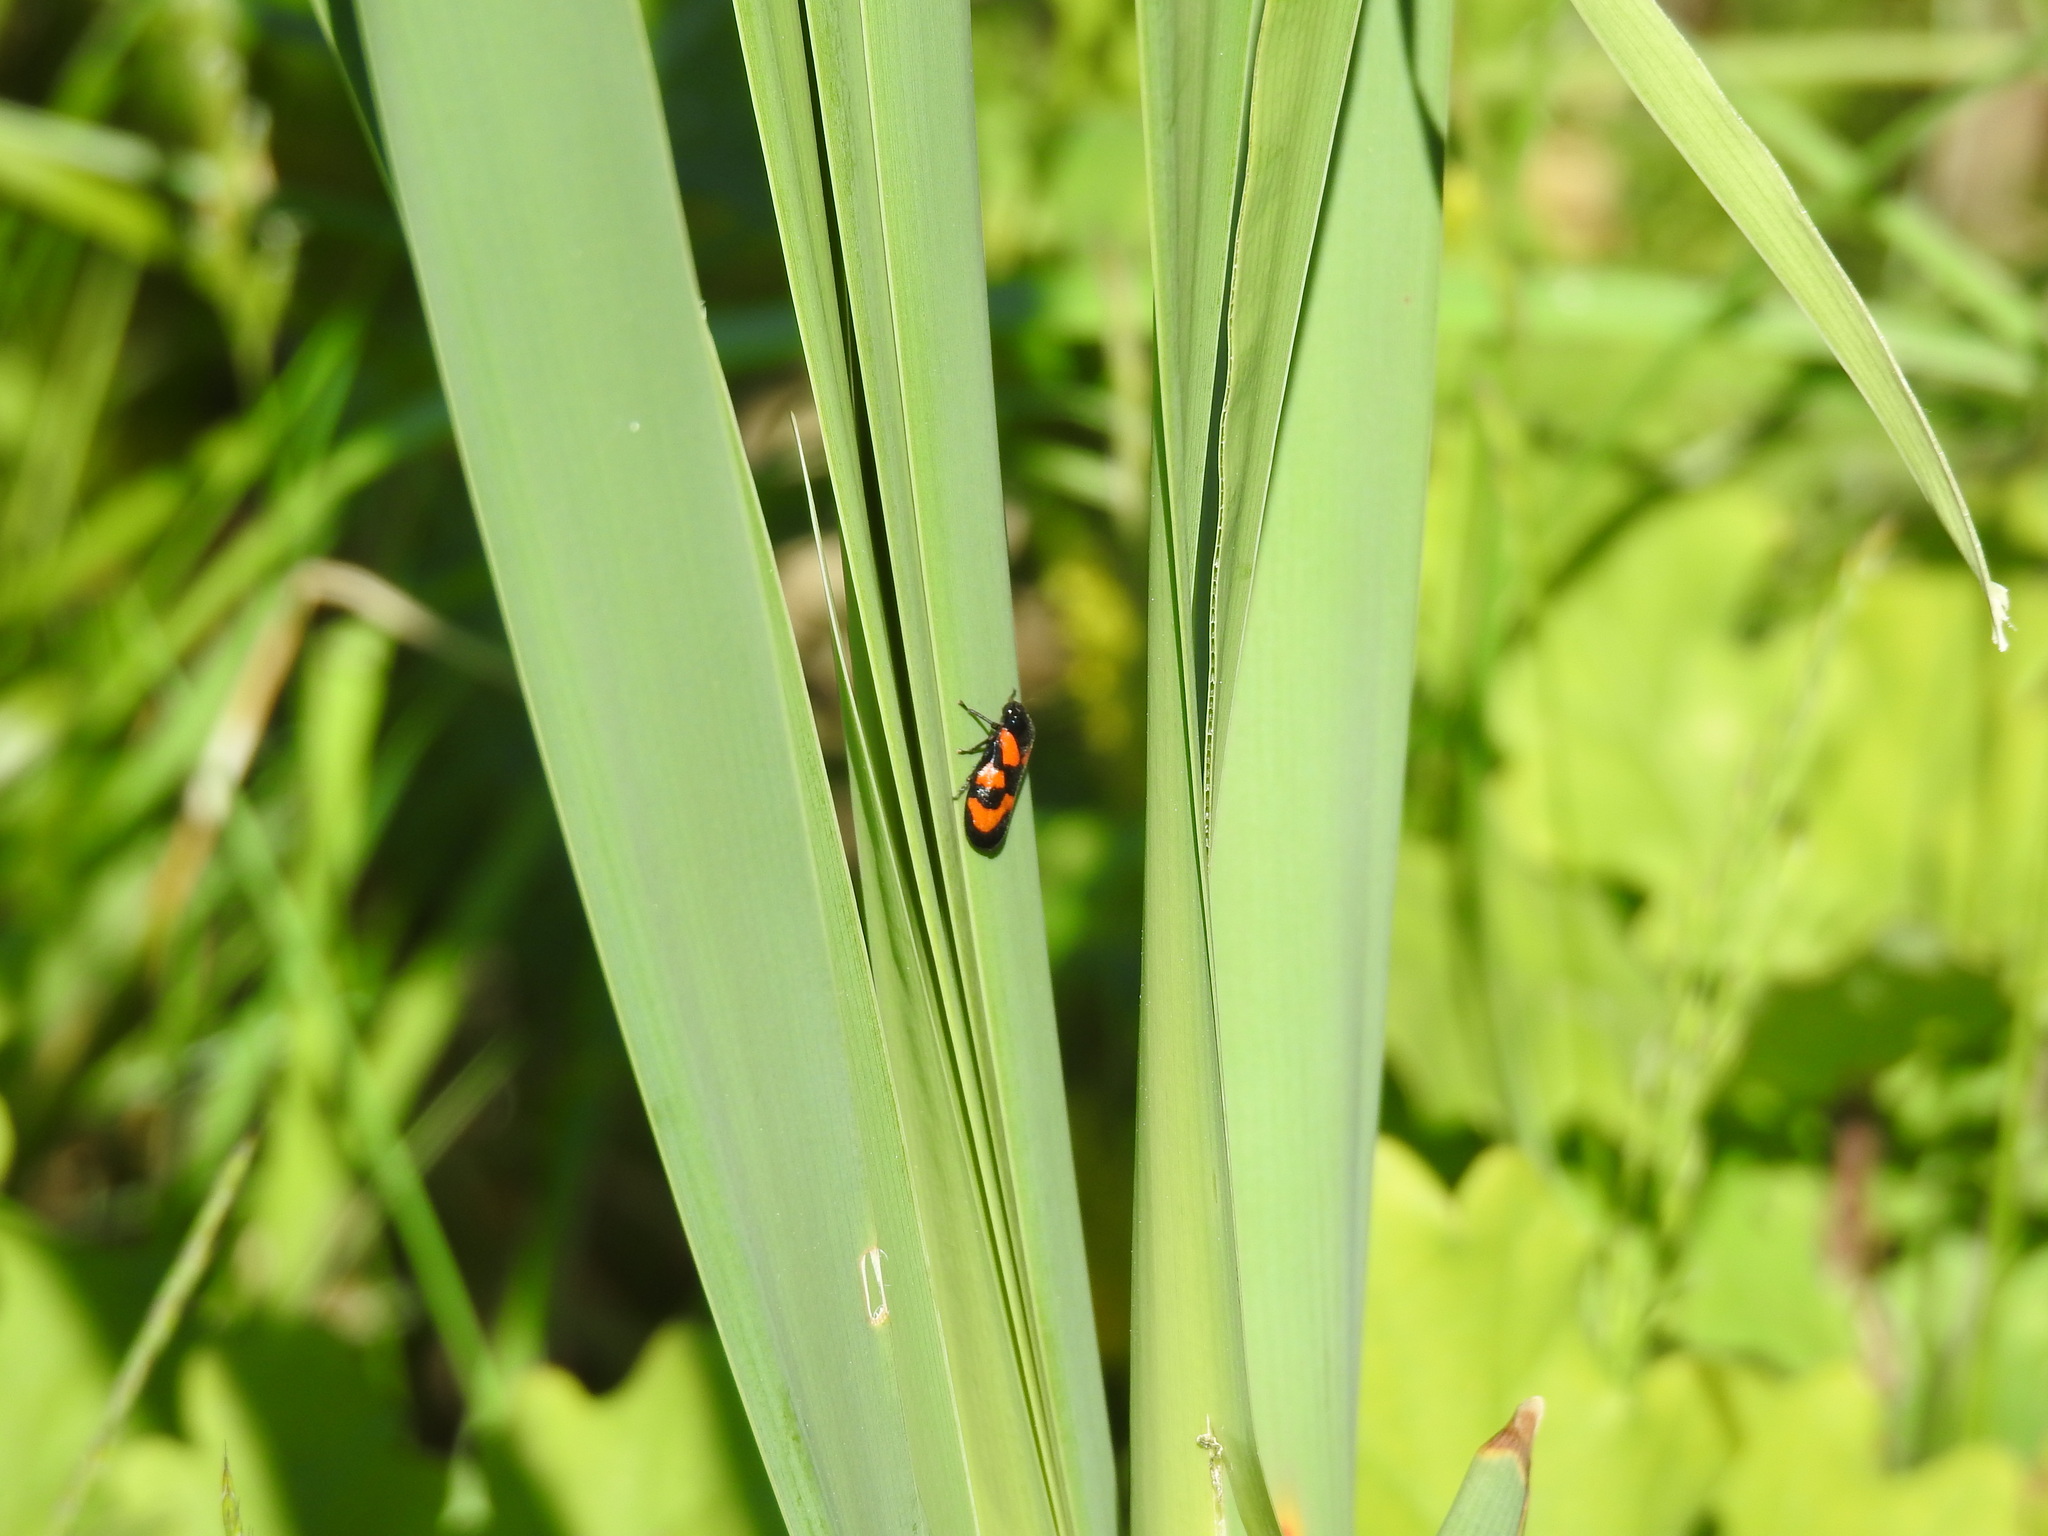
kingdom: Animalia
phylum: Arthropoda
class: Insecta
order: Hemiptera
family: Cercopidae
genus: Cercopis
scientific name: Cercopis vulnerata
